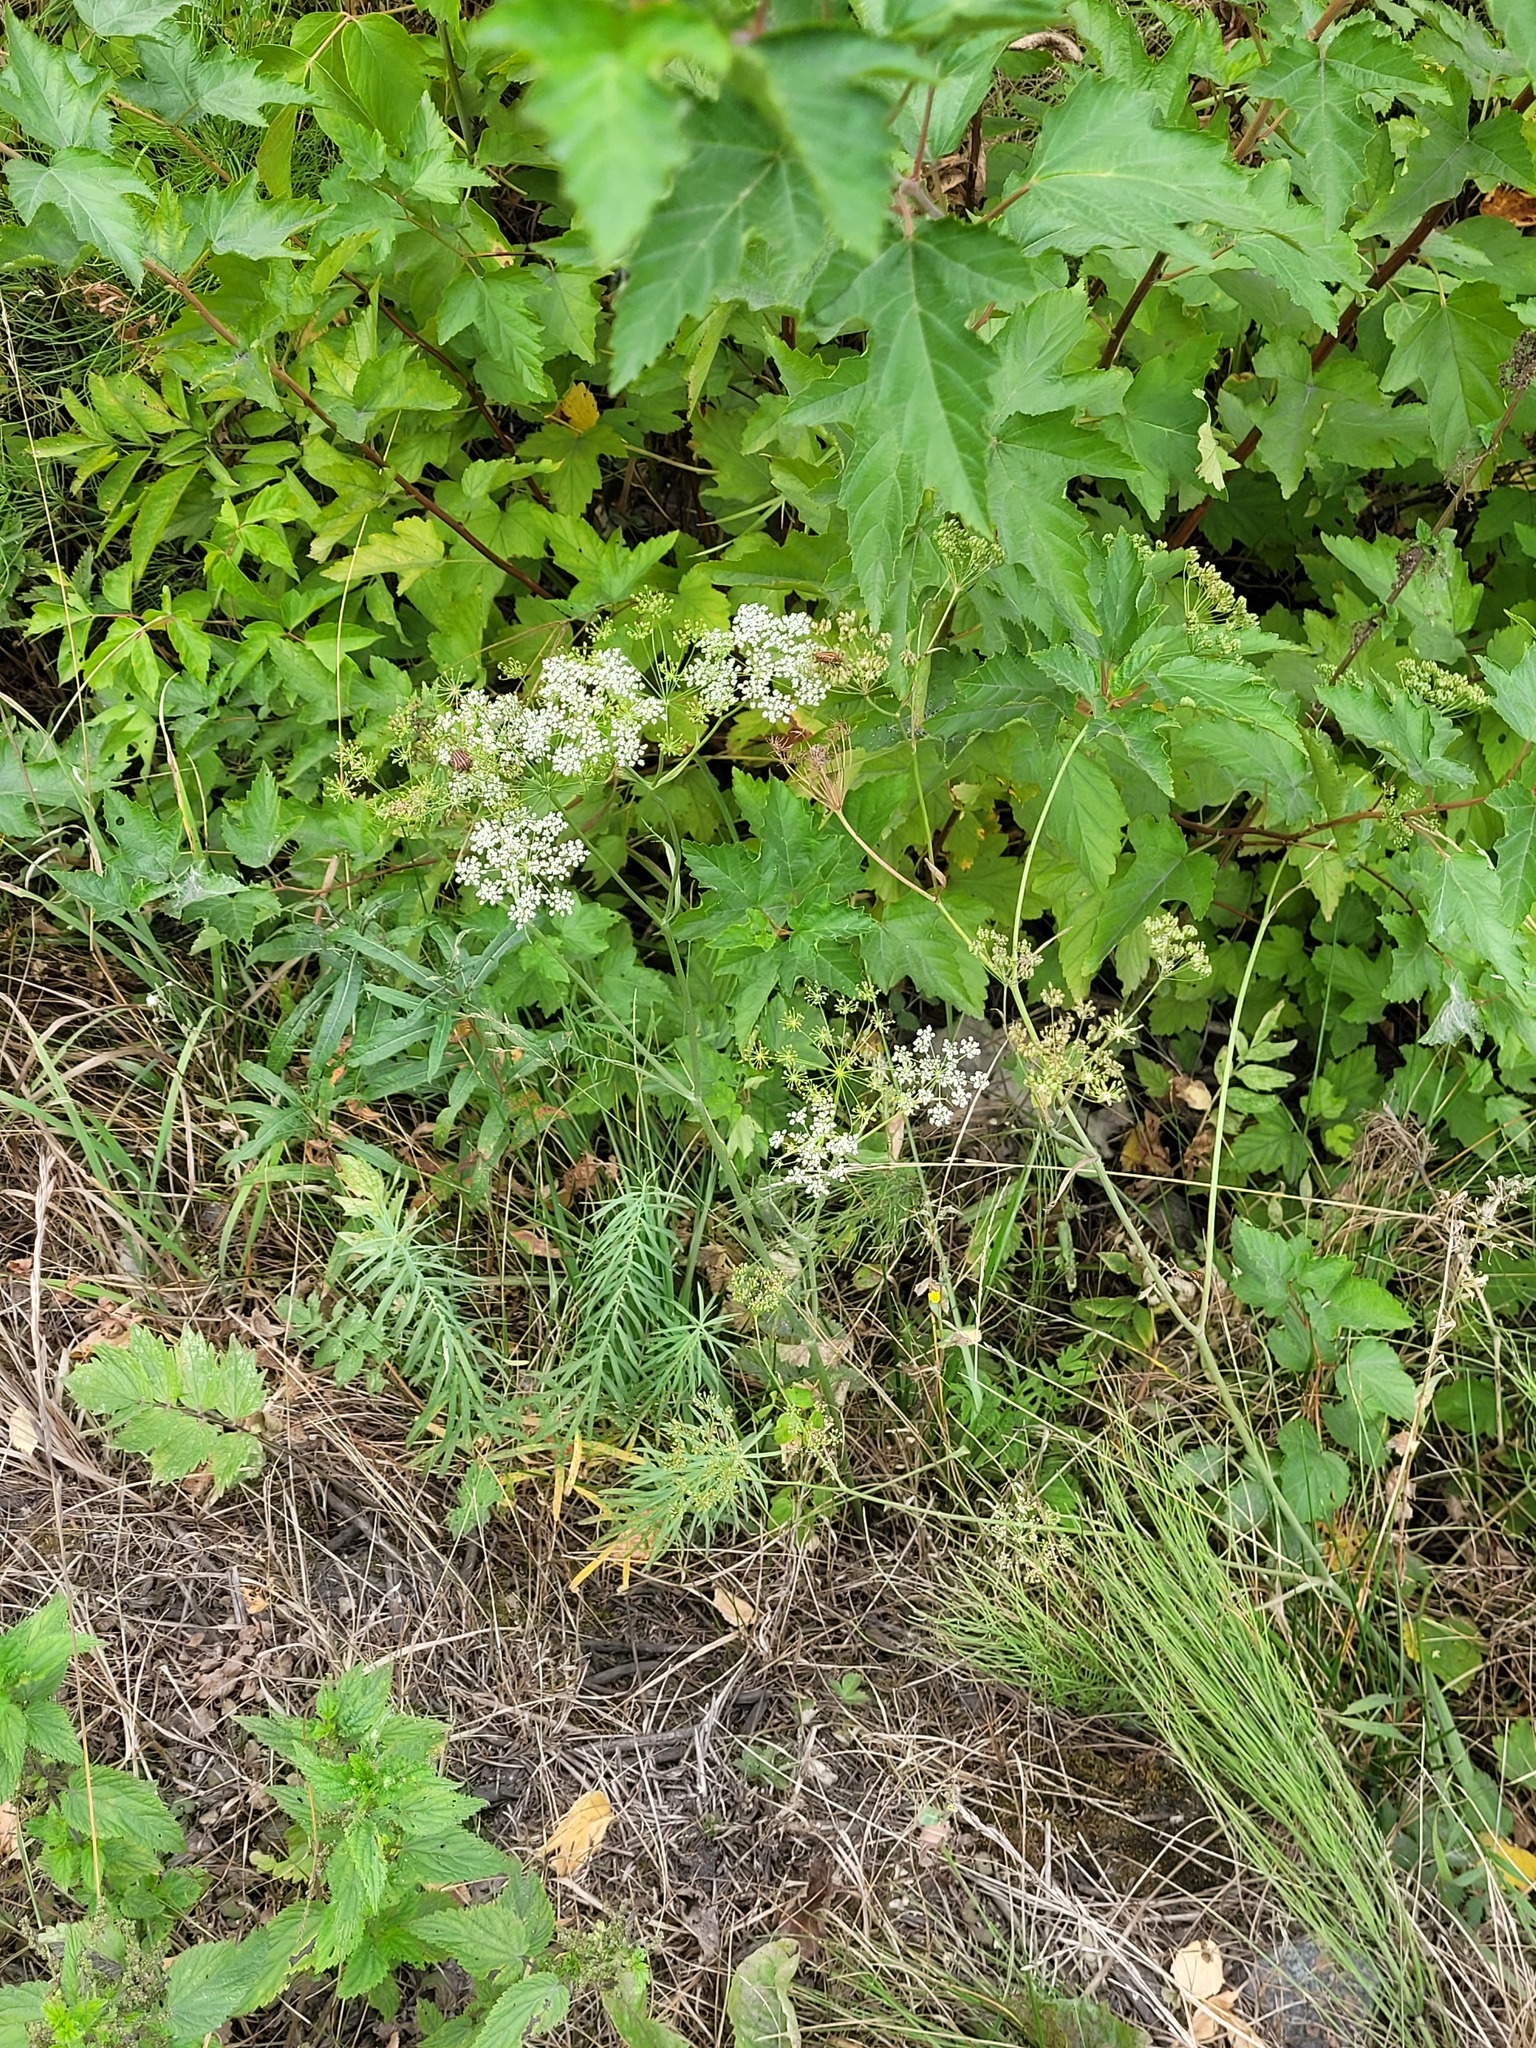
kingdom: Plantae
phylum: Tracheophyta
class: Magnoliopsida
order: Apiales
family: Apiaceae
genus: Pimpinella
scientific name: Pimpinella saxifraga
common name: Burnet-saxifrage
